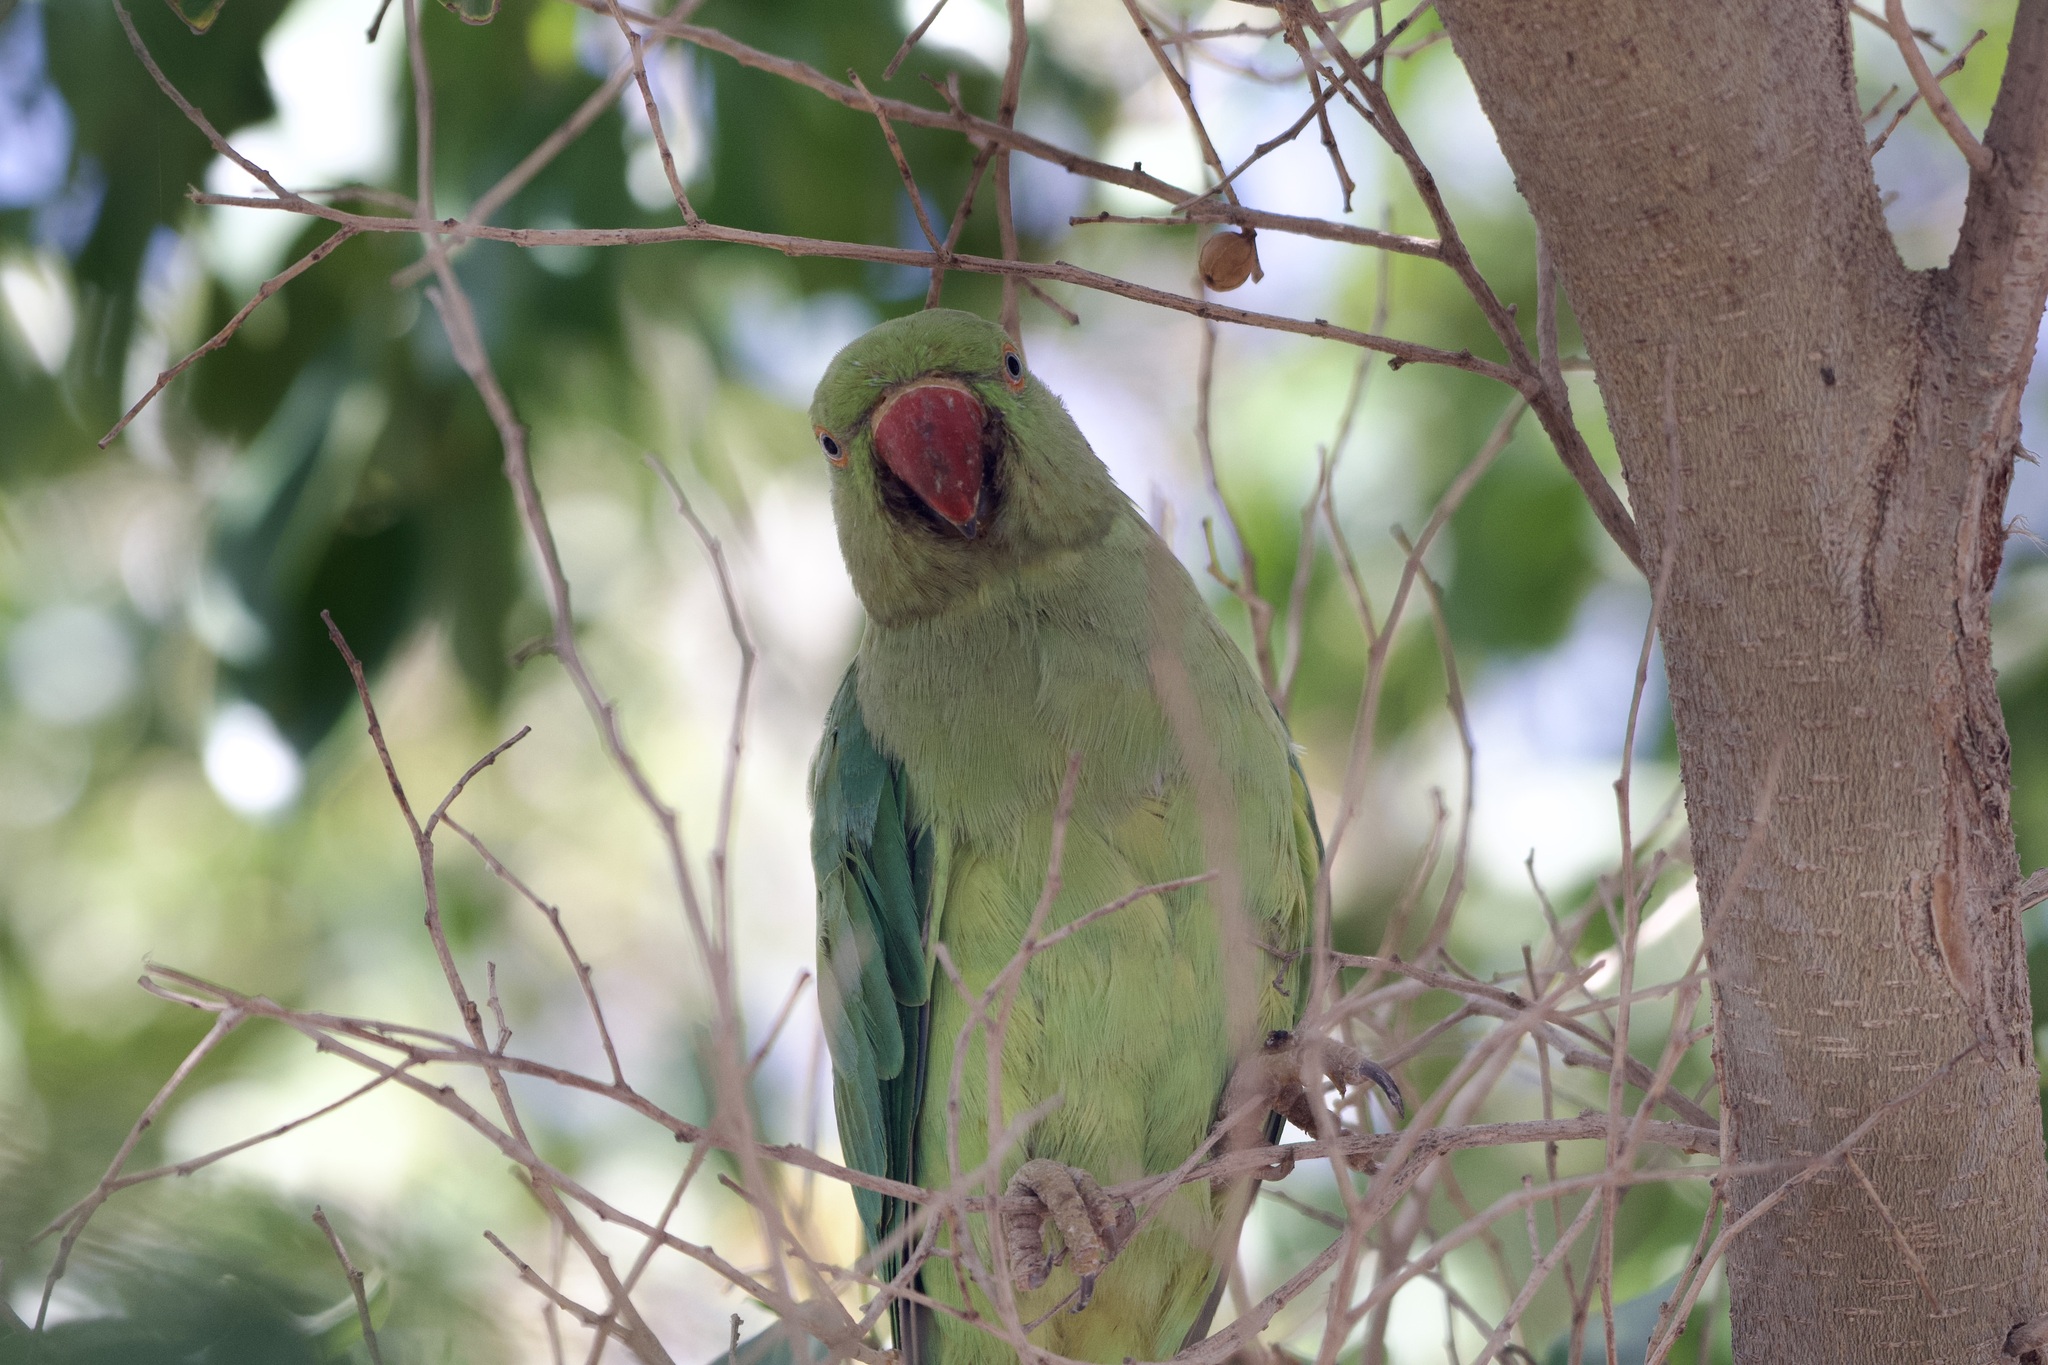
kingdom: Animalia
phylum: Chordata
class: Aves
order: Psittaciformes
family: Psittacidae
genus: Psittacula
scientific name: Psittacula krameri
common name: Rose-ringed parakeet
